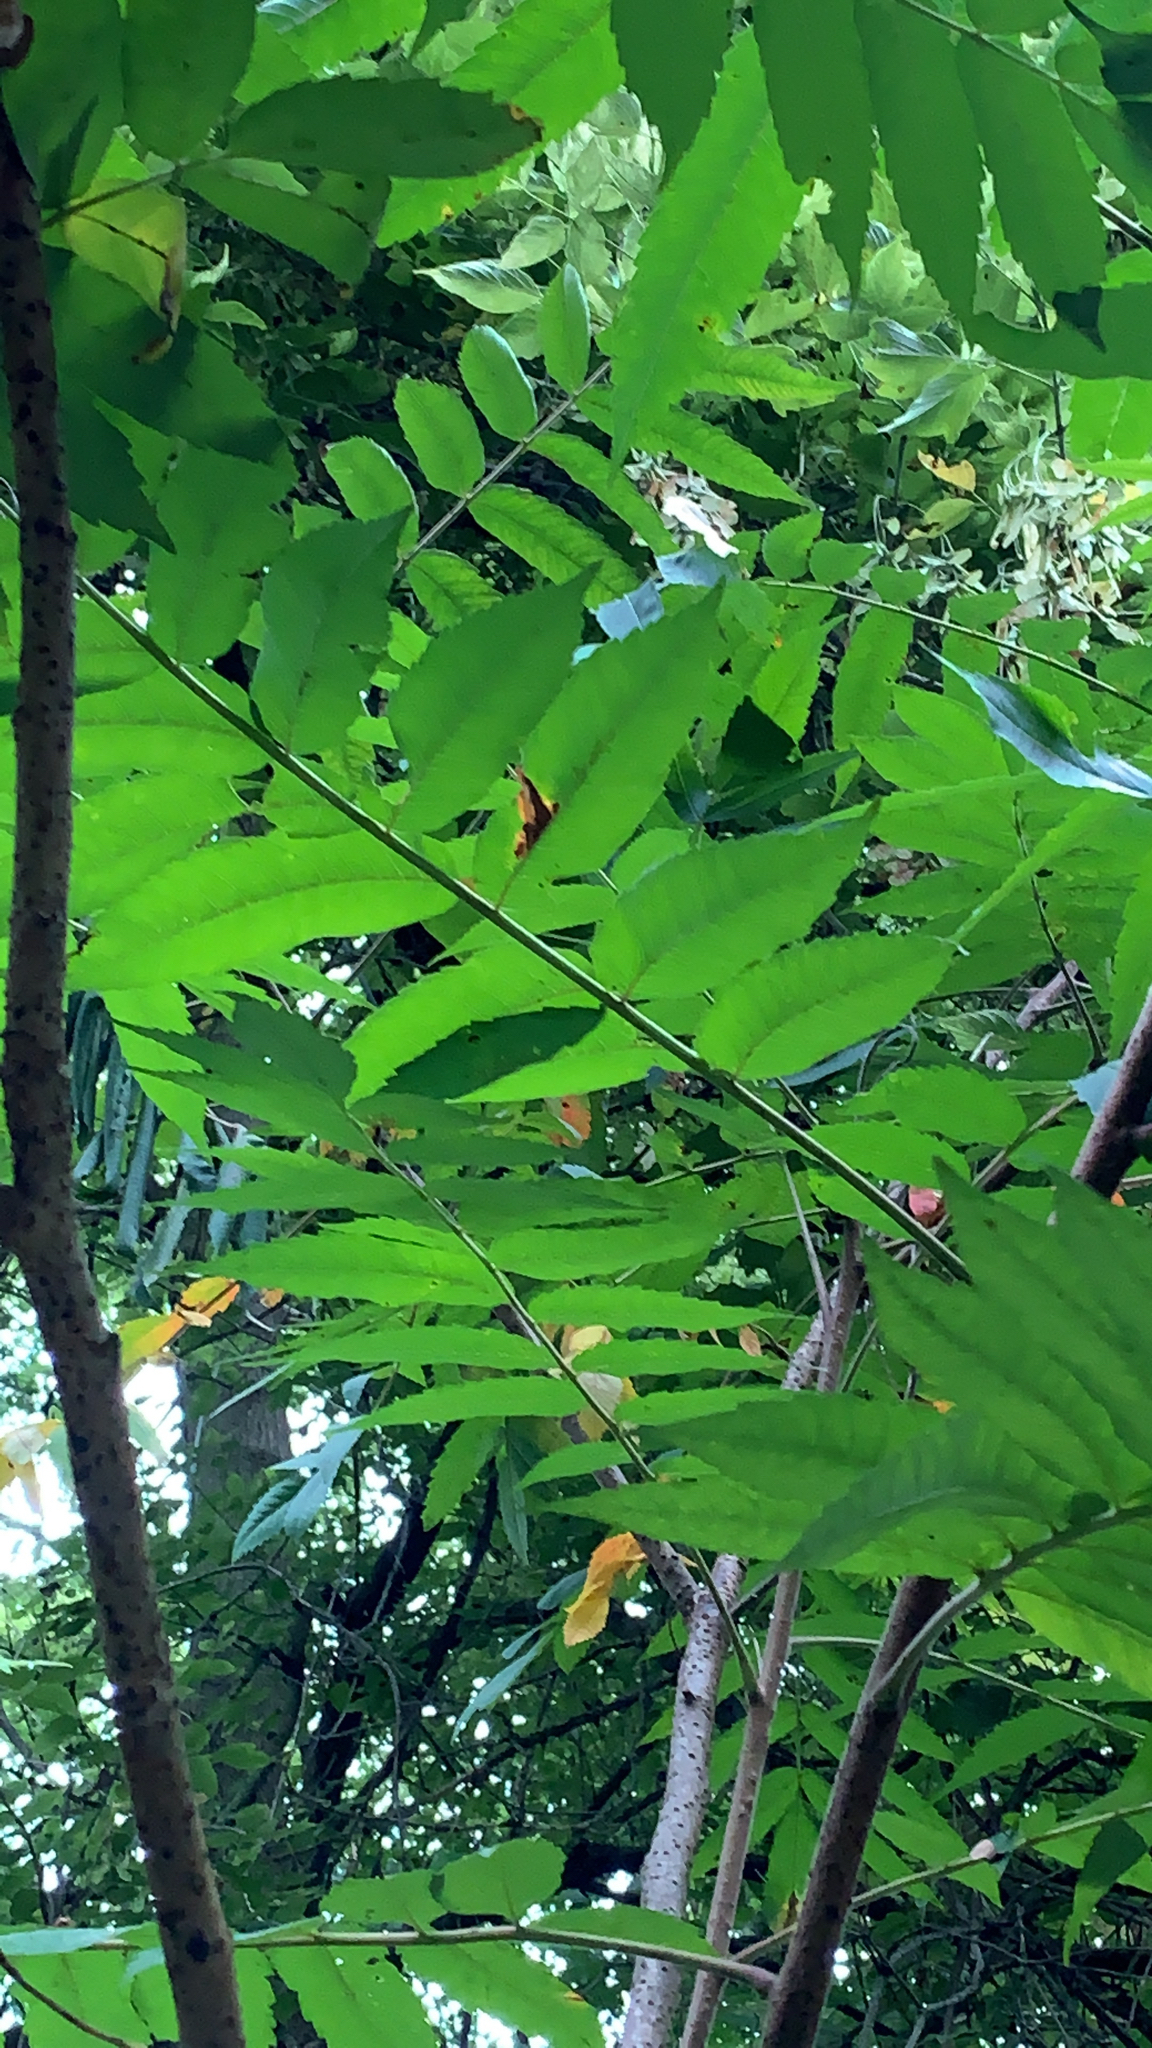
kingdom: Plantae
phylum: Tracheophyta
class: Magnoliopsida
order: Sapindales
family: Anacardiaceae
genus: Rhus
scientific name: Rhus typhina
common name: Staghorn sumac
